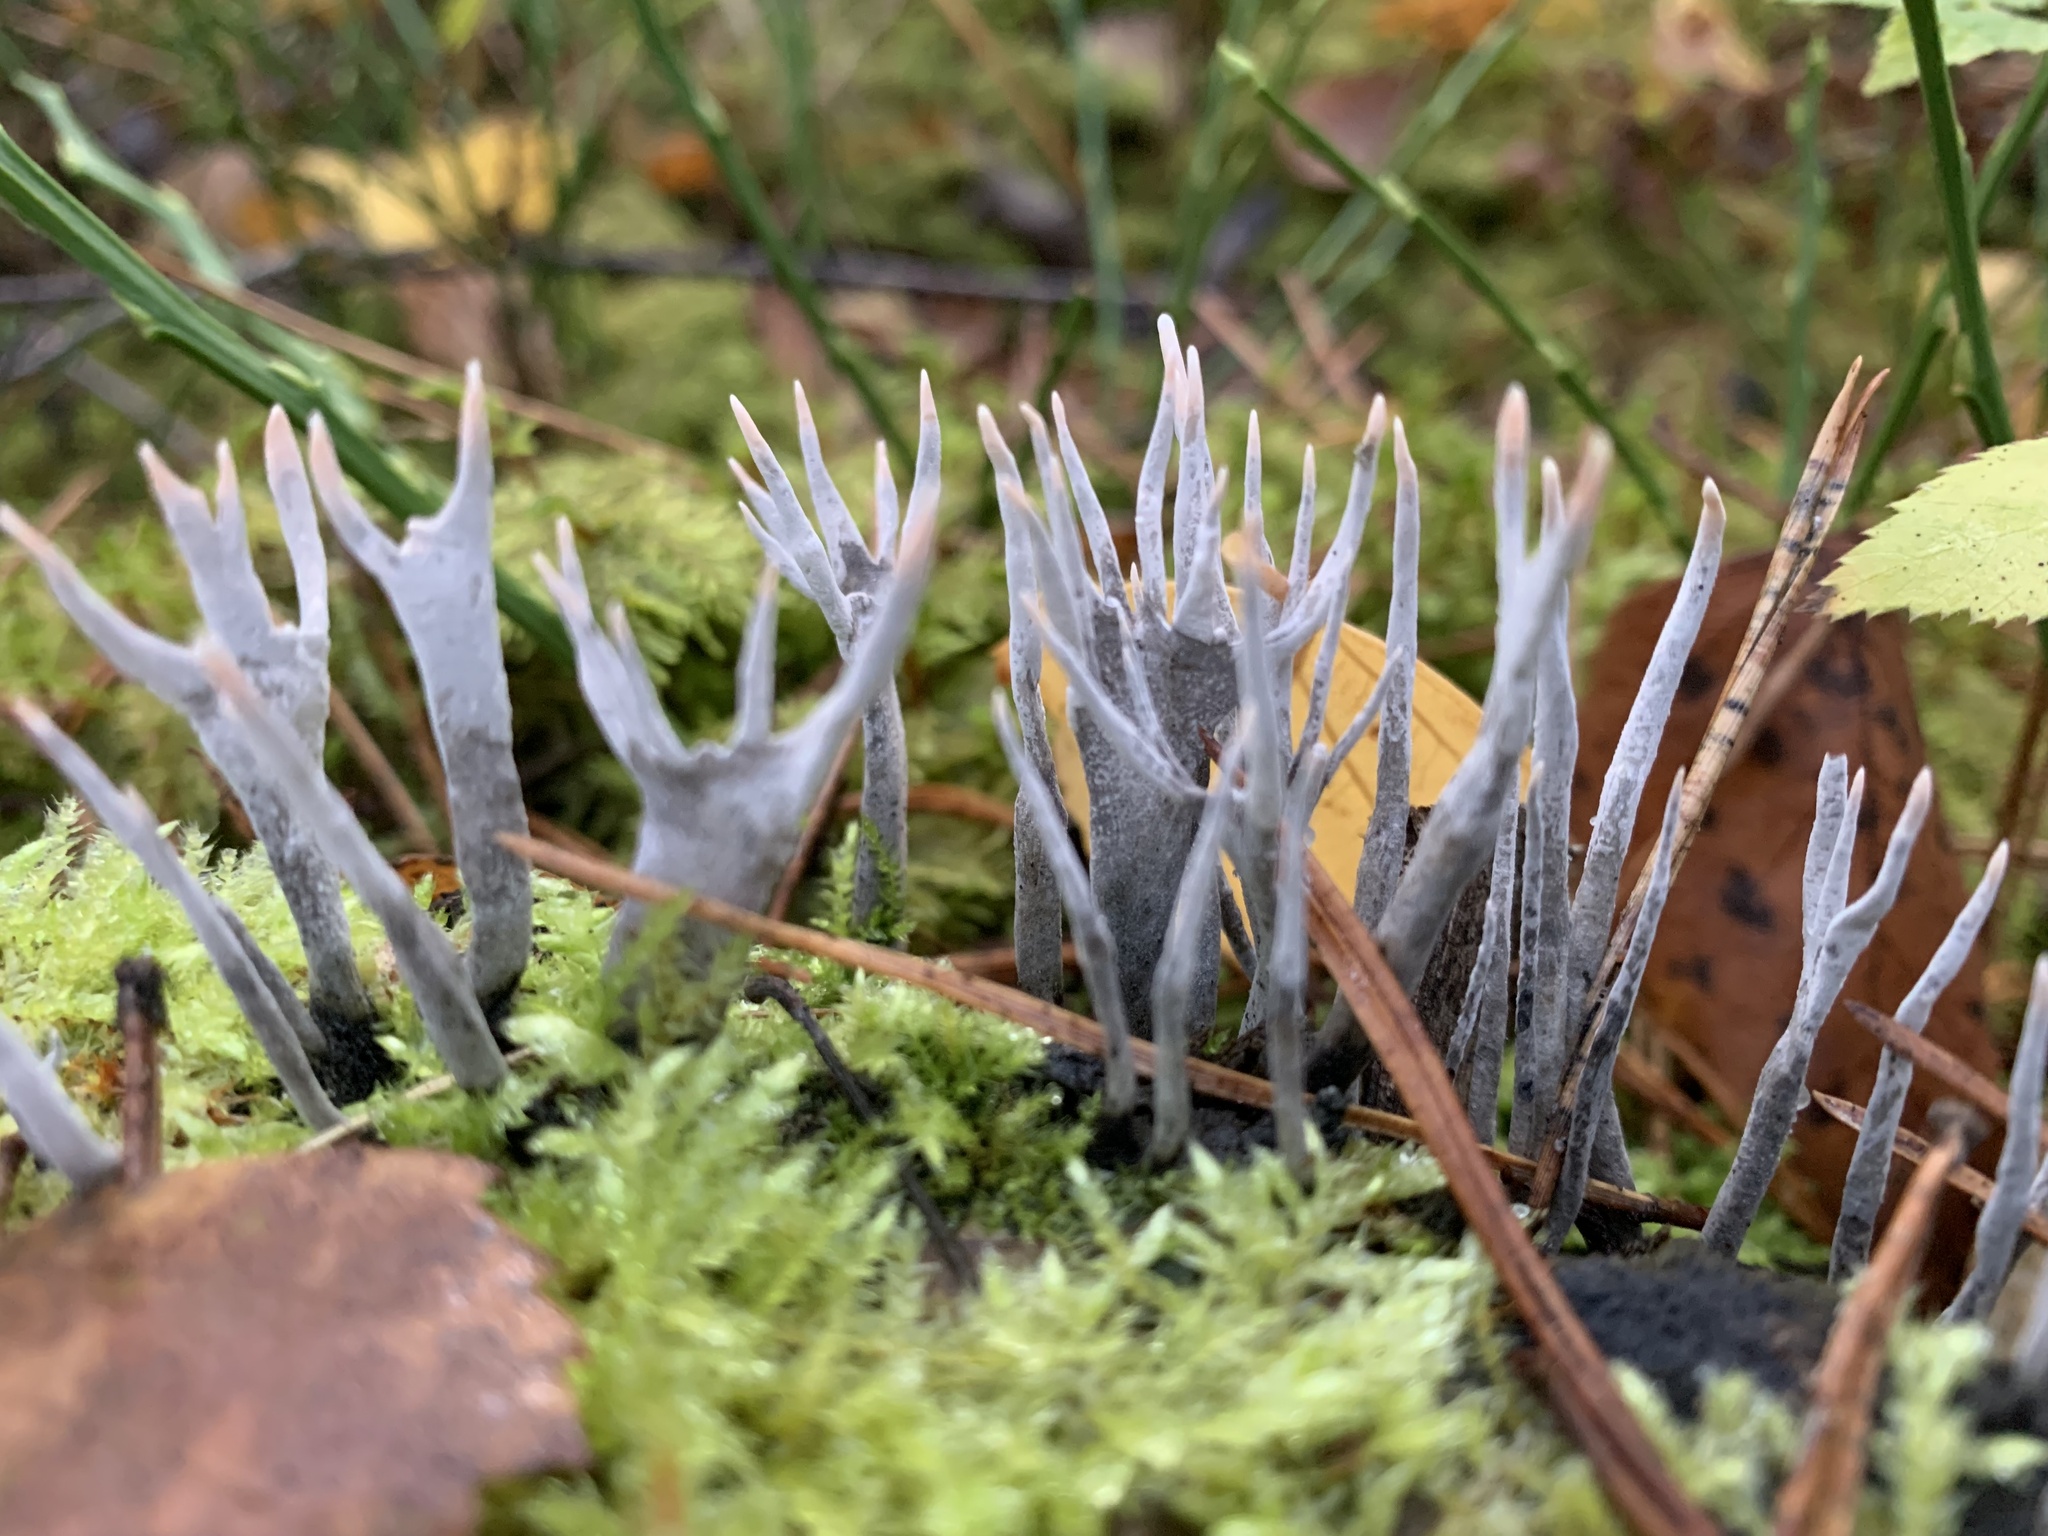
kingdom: Fungi
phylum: Ascomycota
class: Sordariomycetes
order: Xylariales
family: Xylariaceae
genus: Xylaria
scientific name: Xylaria hypoxylon
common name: Candle-snuff fungus
